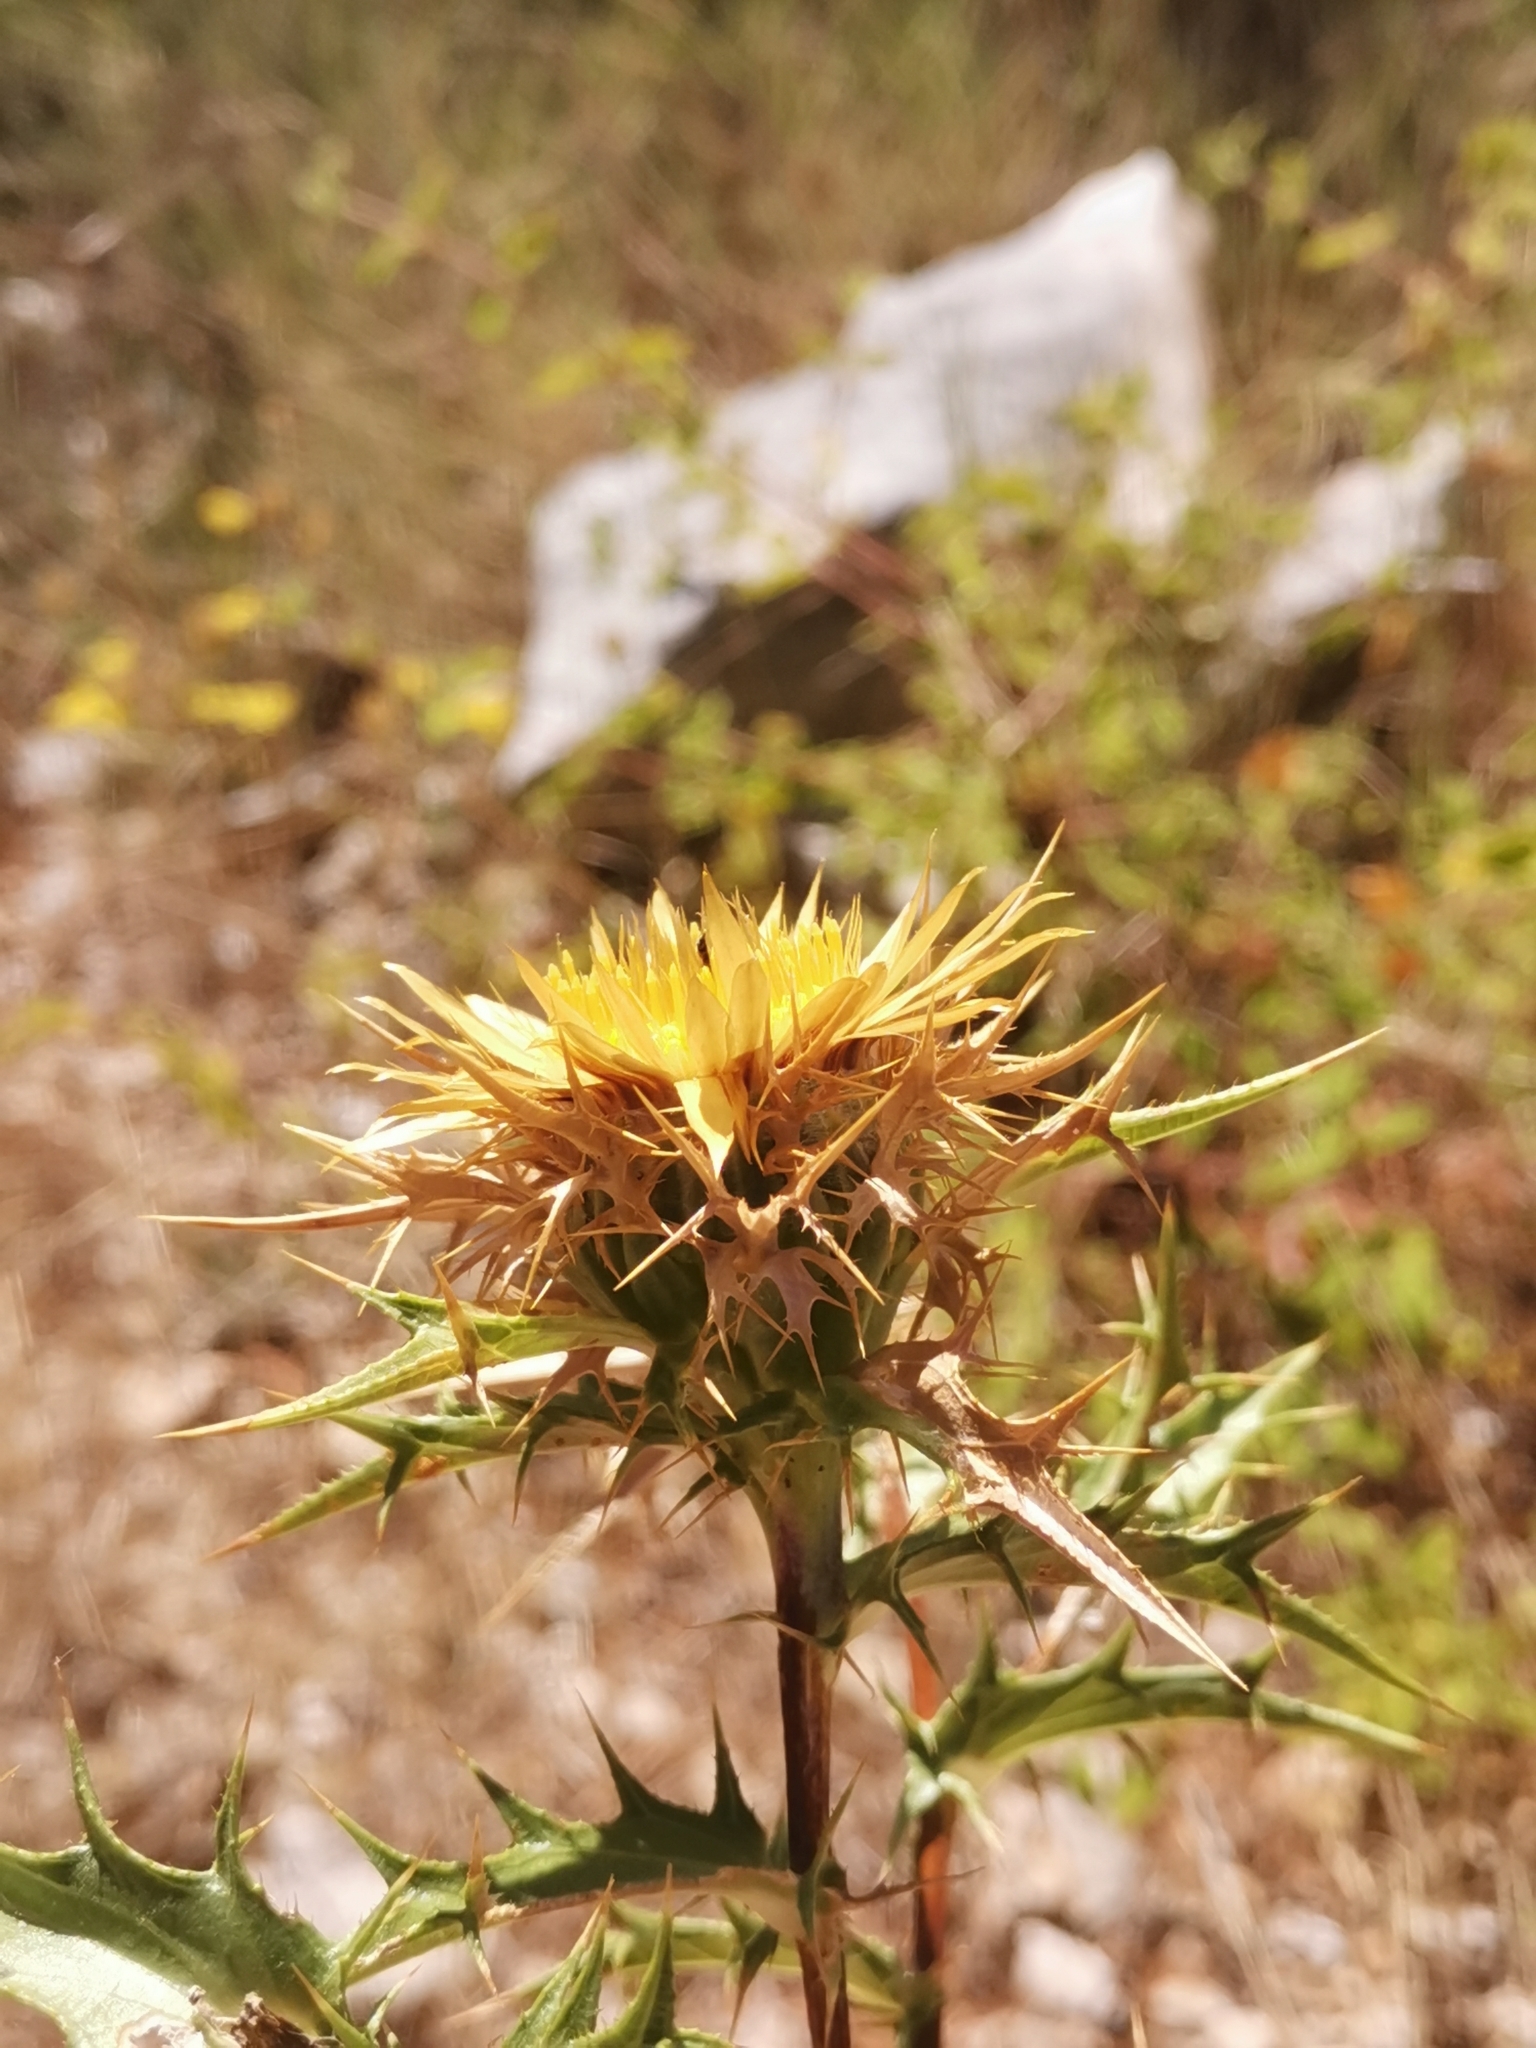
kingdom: Plantae
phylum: Tracheophyta
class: Magnoliopsida
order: Asterales
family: Asteraceae
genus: Carlina
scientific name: Carlina corymbosa
